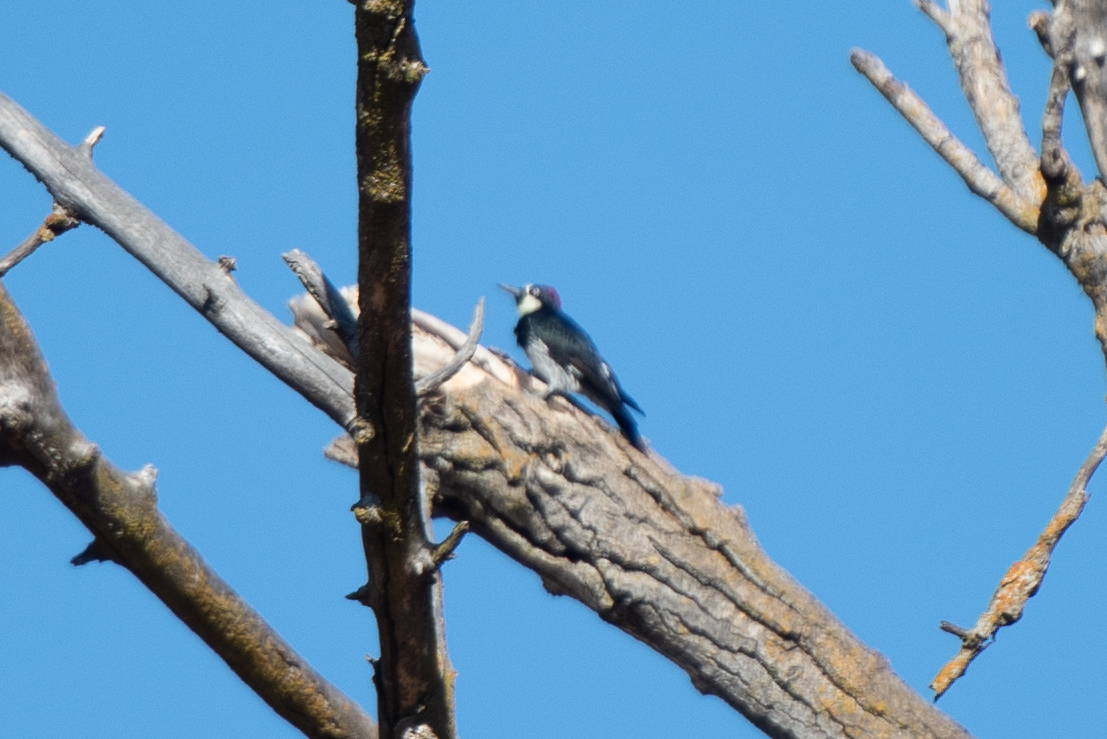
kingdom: Animalia
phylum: Chordata
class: Aves
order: Piciformes
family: Picidae
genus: Melanerpes
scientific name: Melanerpes formicivorus
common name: Acorn woodpecker
